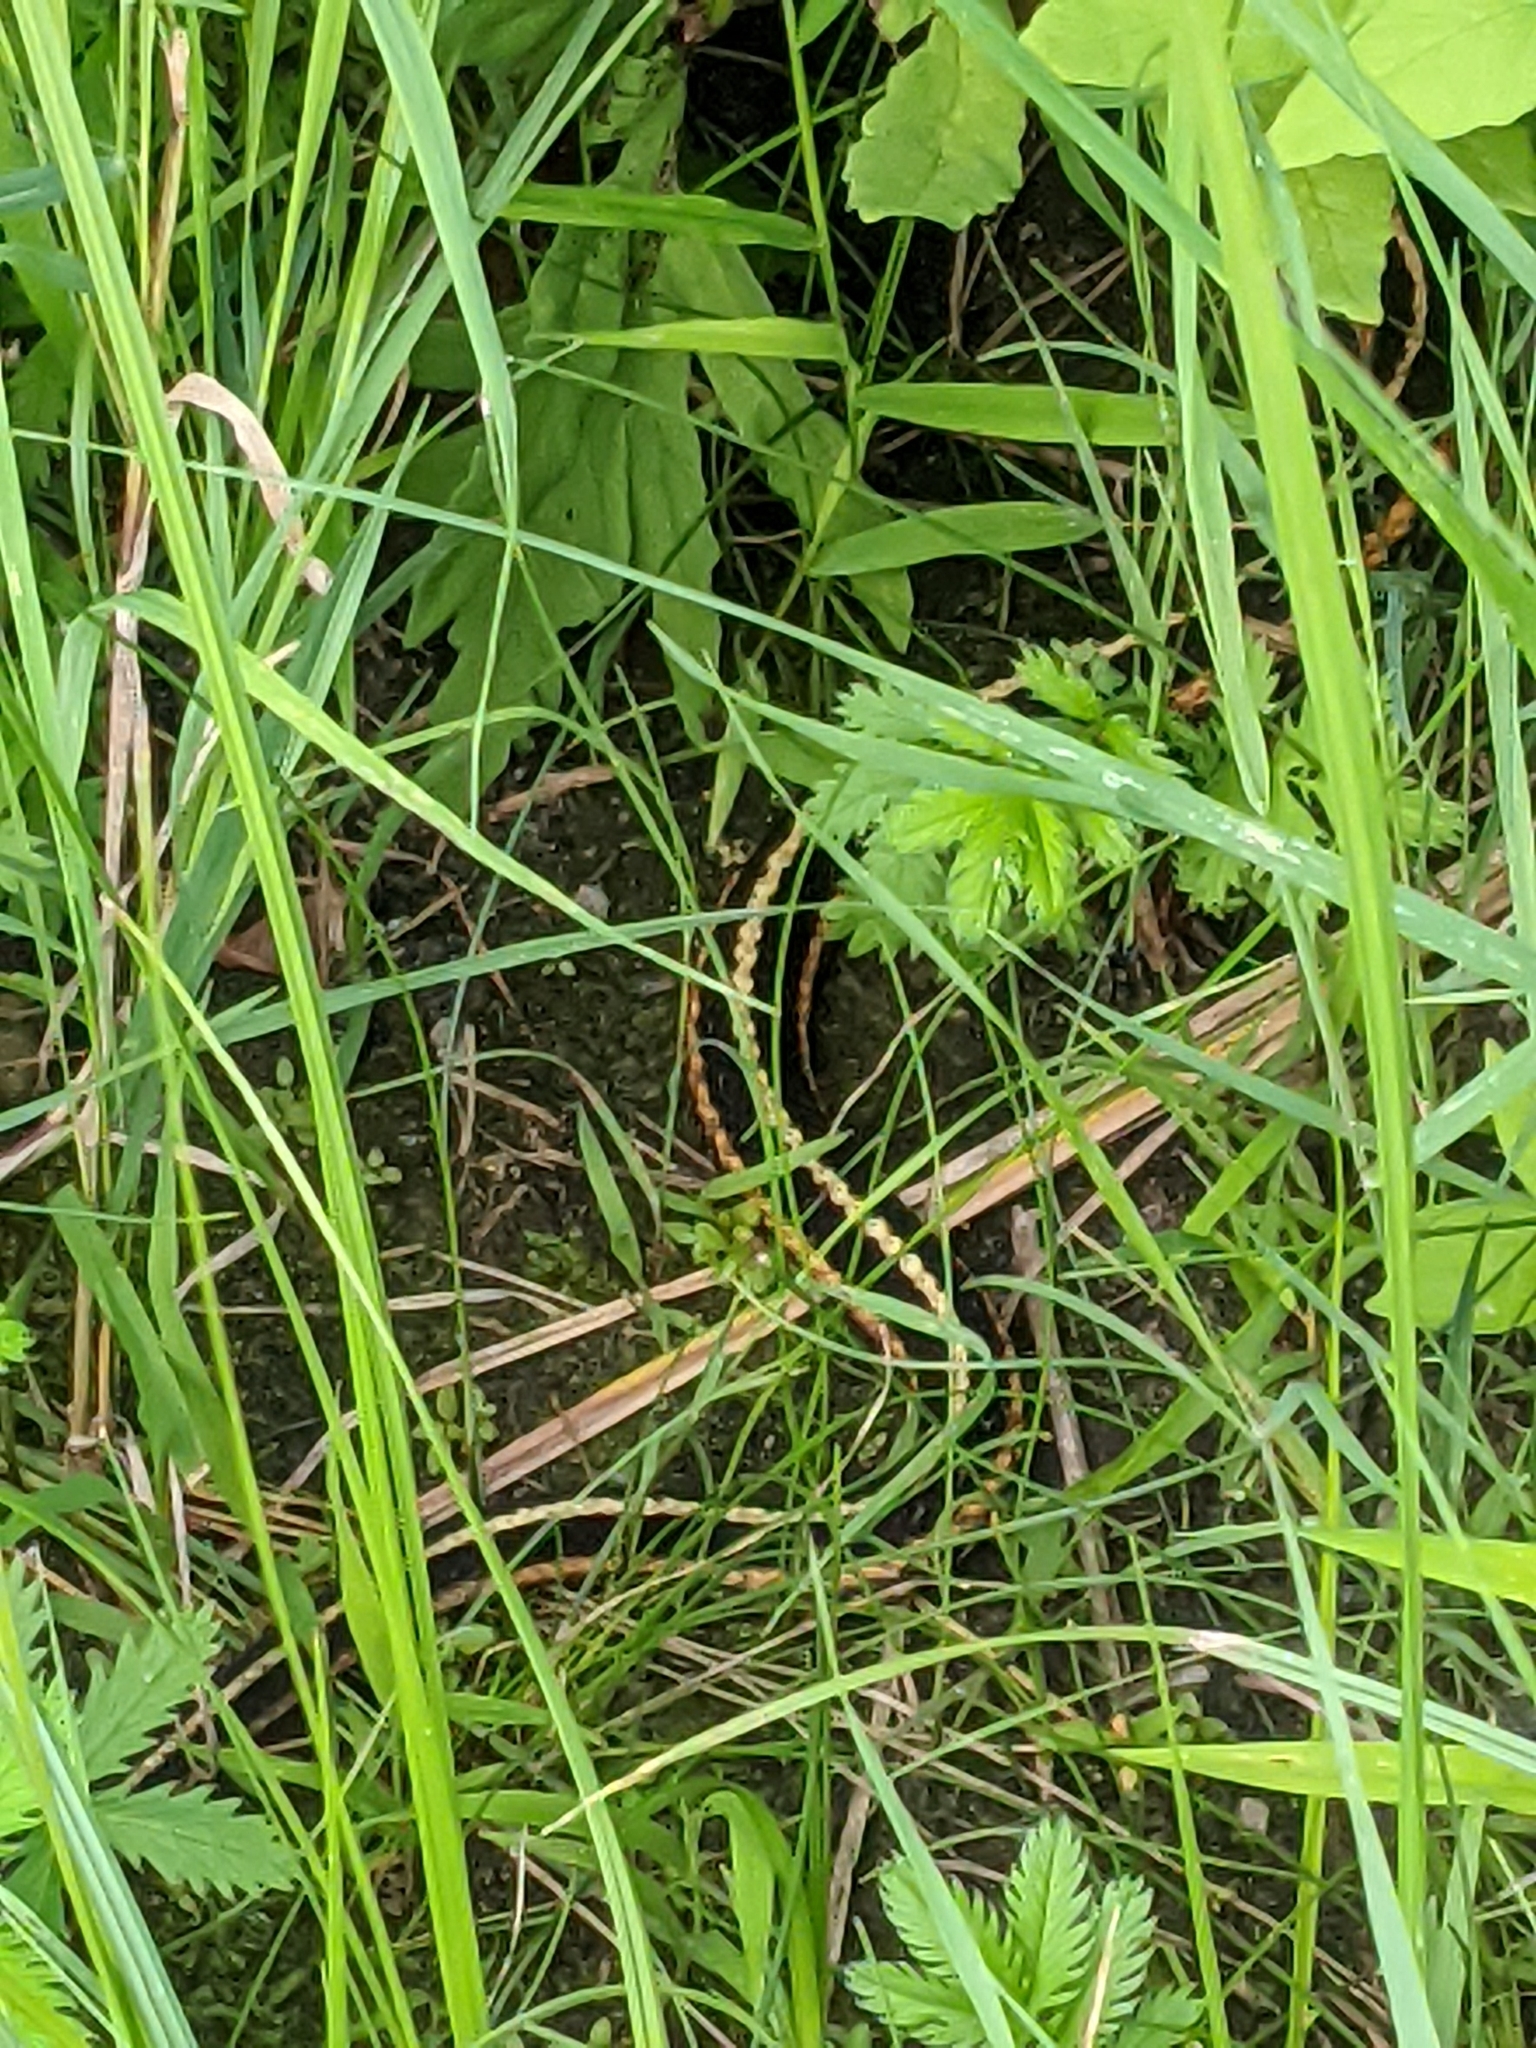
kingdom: Animalia
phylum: Chordata
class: Squamata
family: Colubridae
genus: Thamnophis
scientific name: Thamnophis sirtalis
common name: Common garter snake
